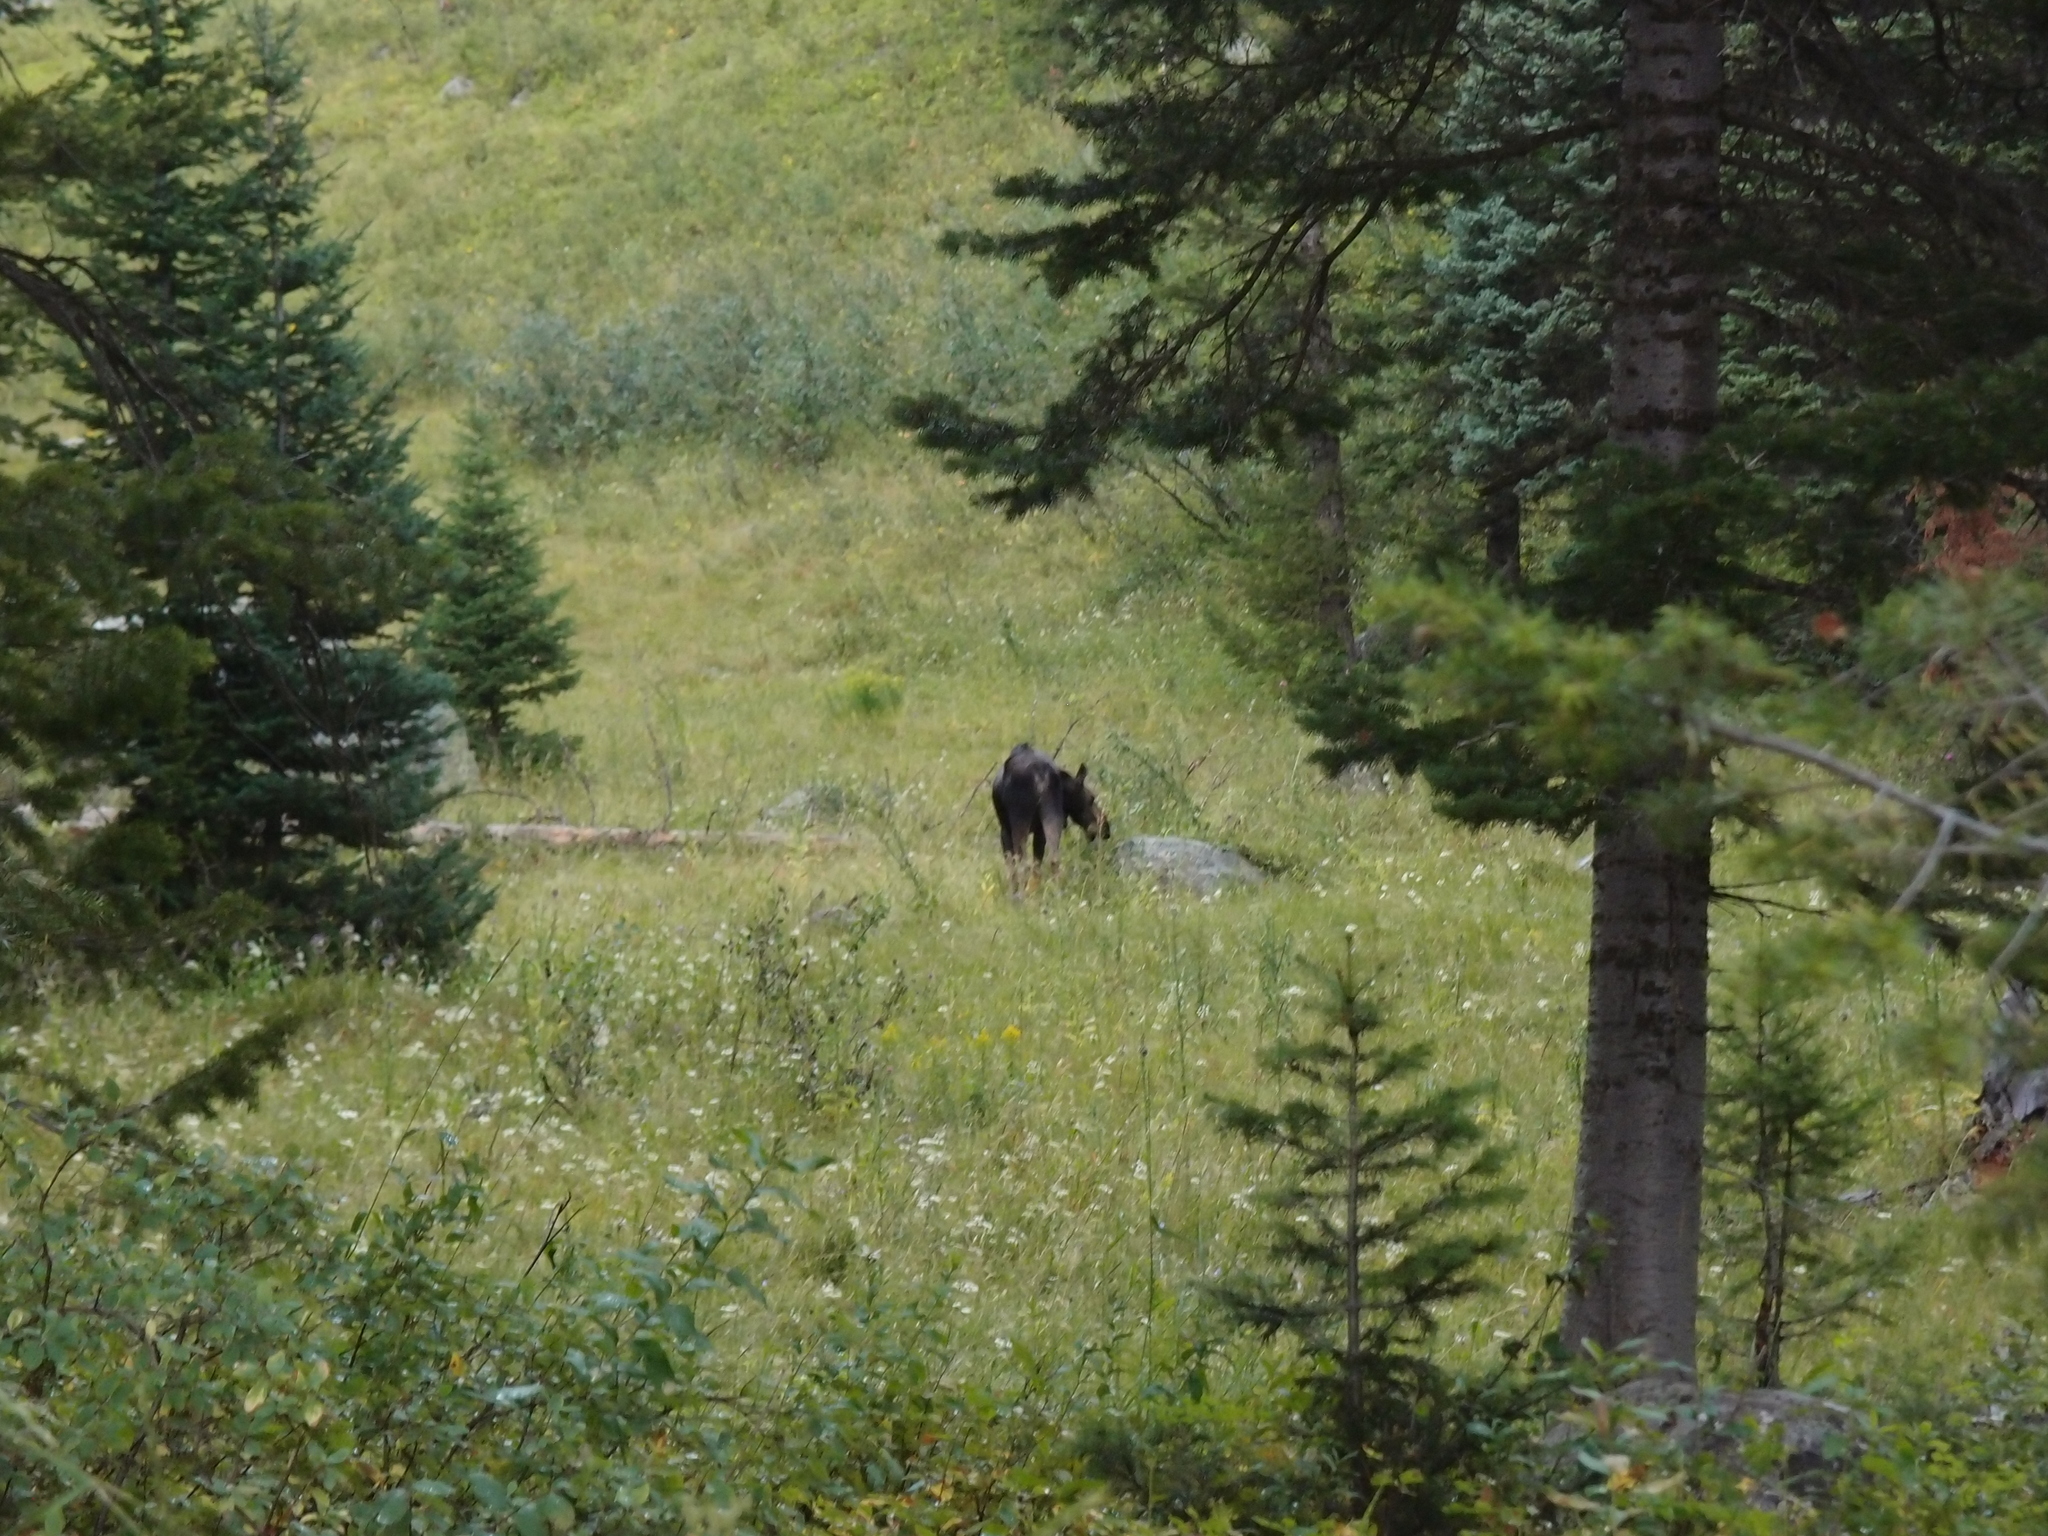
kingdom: Animalia
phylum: Chordata
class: Mammalia
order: Artiodactyla
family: Cervidae
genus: Alces
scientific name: Alces alces
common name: Moose
